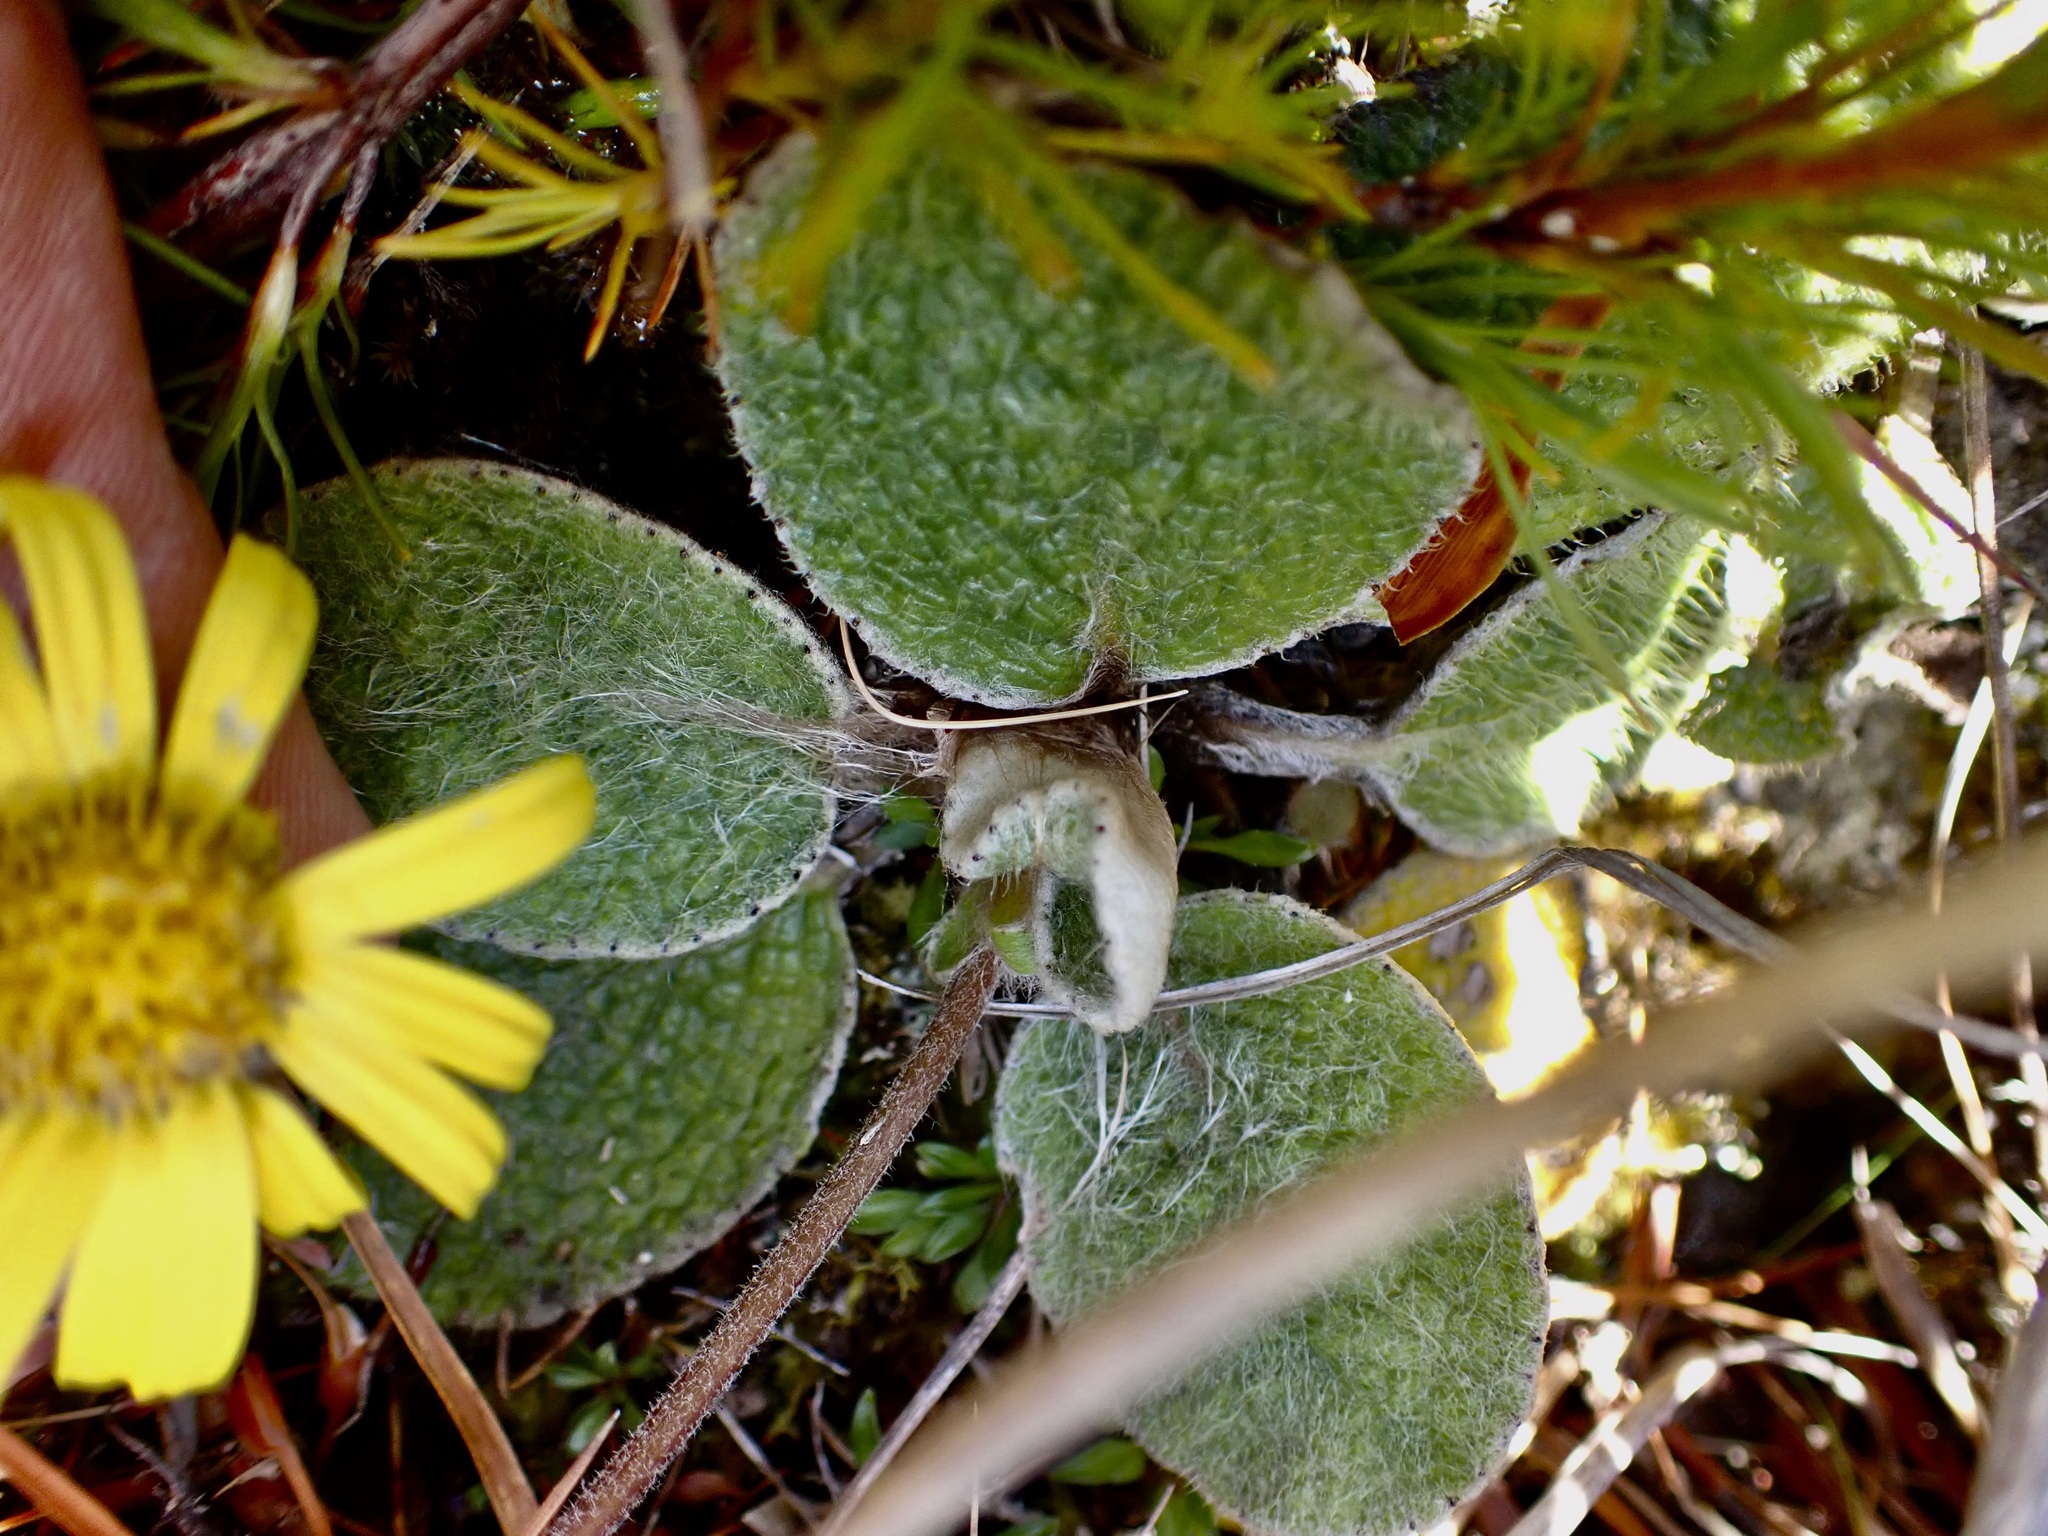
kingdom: Plantae
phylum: Tracheophyta
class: Magnoliopsida
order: Asterales
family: Asteraceae
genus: Brachyglottis
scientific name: Brachyglottis bellidioides
